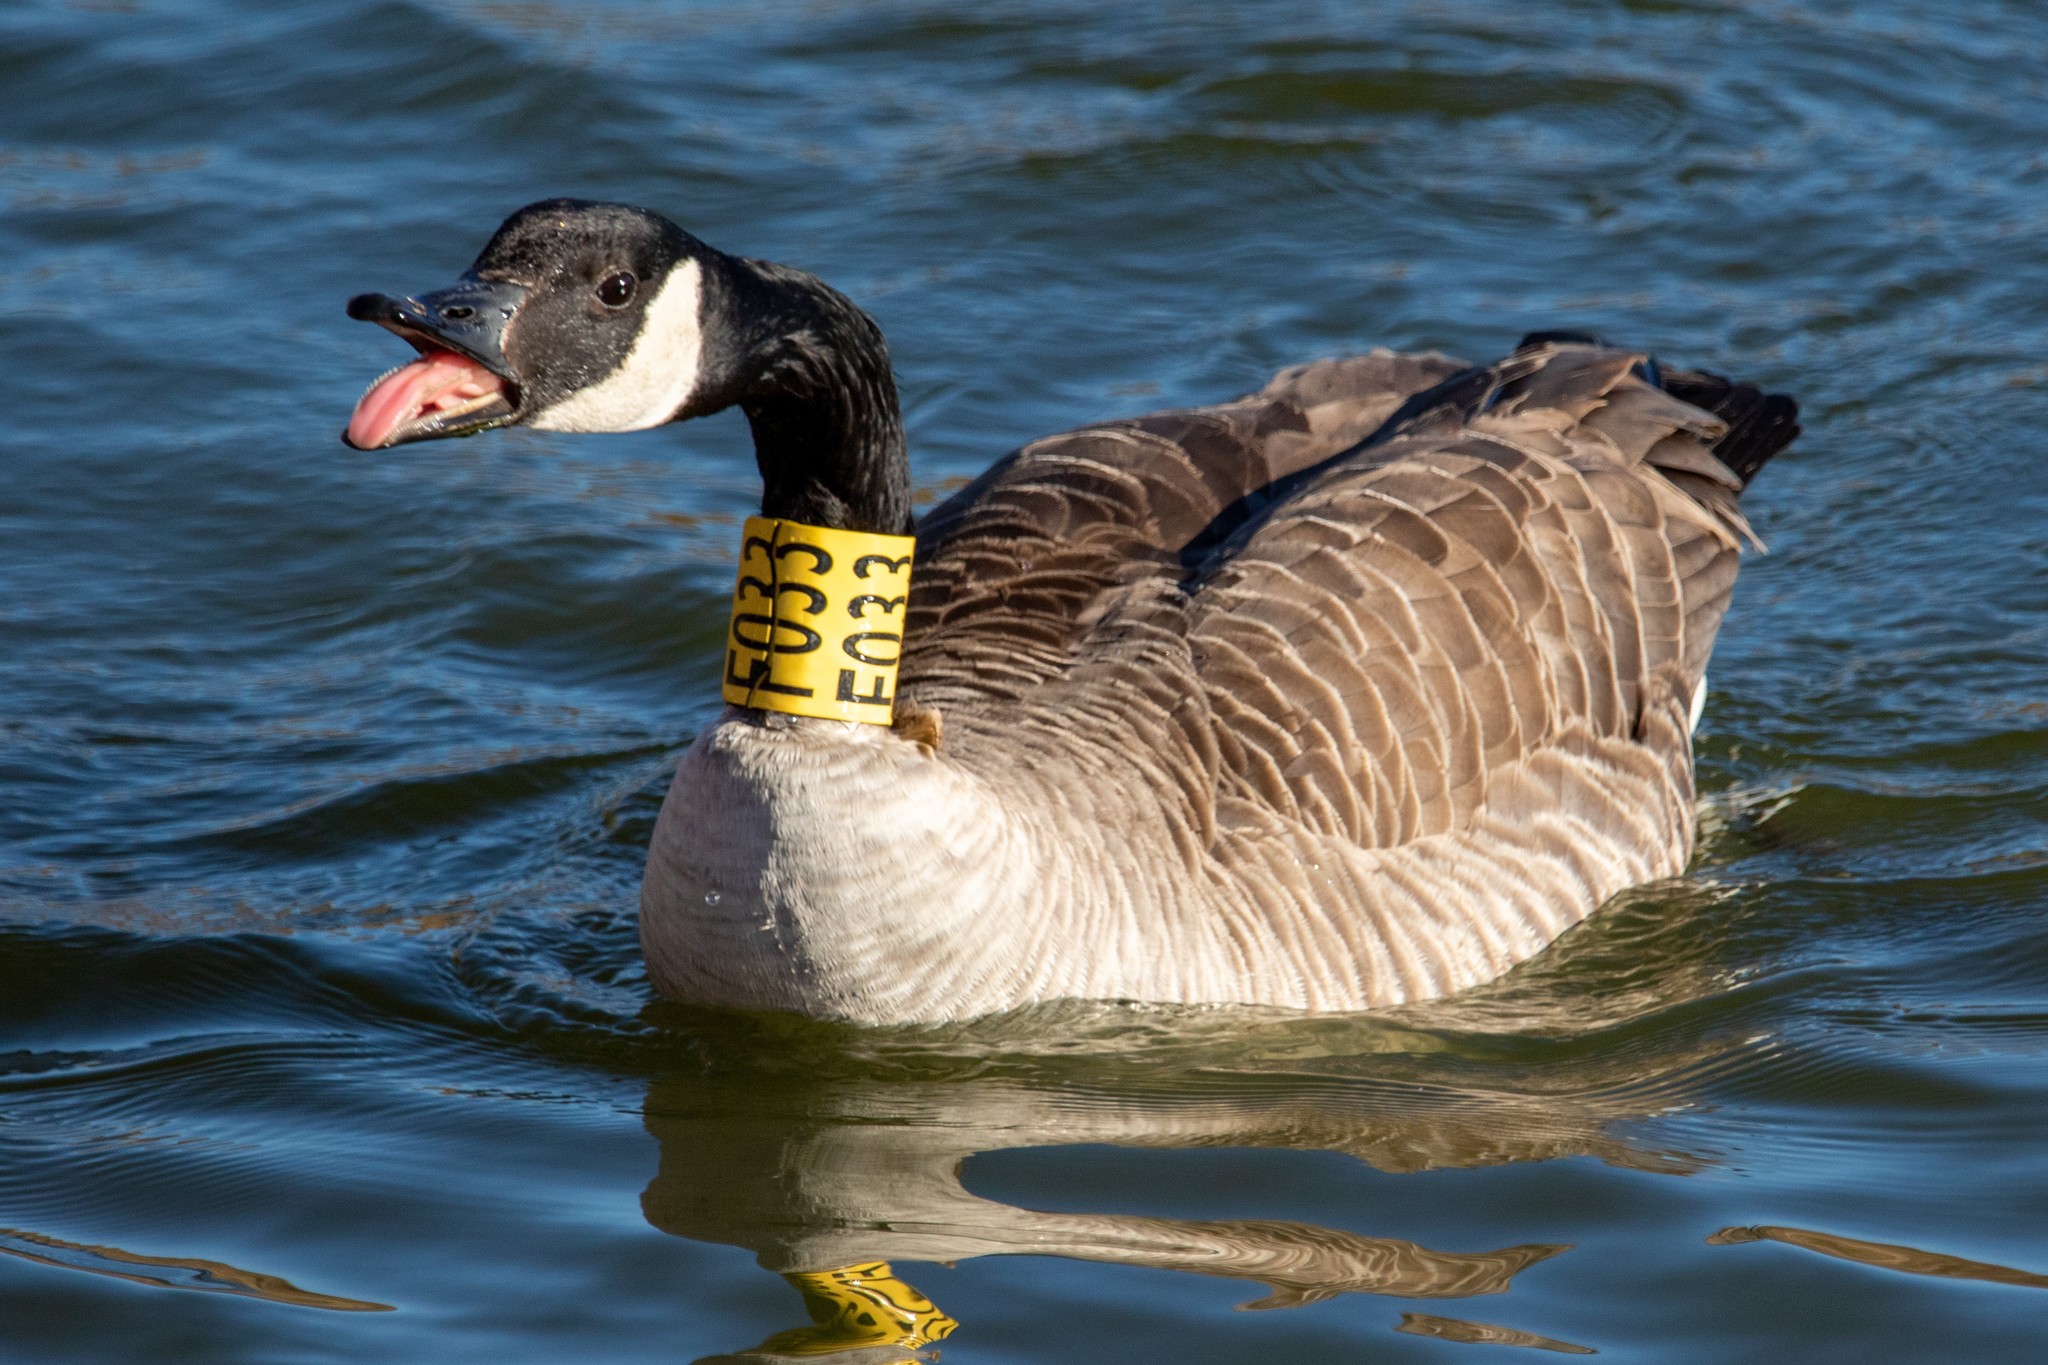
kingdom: Animalia
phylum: Chordata
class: Aves
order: Anseriformes
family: Anatidae
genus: Branta
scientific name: Branta canadensis
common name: Canada goose
